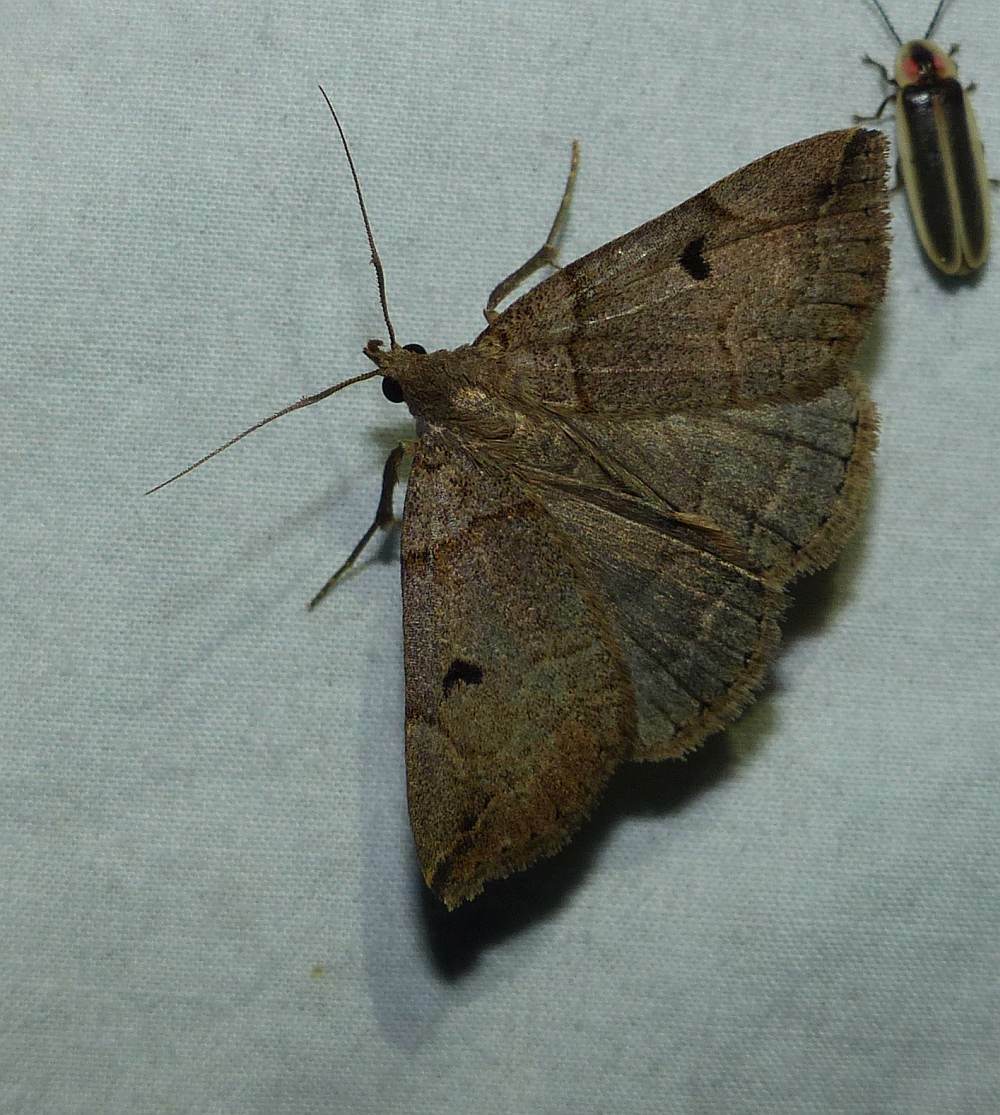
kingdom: Animalia
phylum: Arthropoda
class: Insecta
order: Lepidoptera
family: Erebidae
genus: Zanclognatha
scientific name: Zanclognatha laevigata
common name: Variable fan-foot
